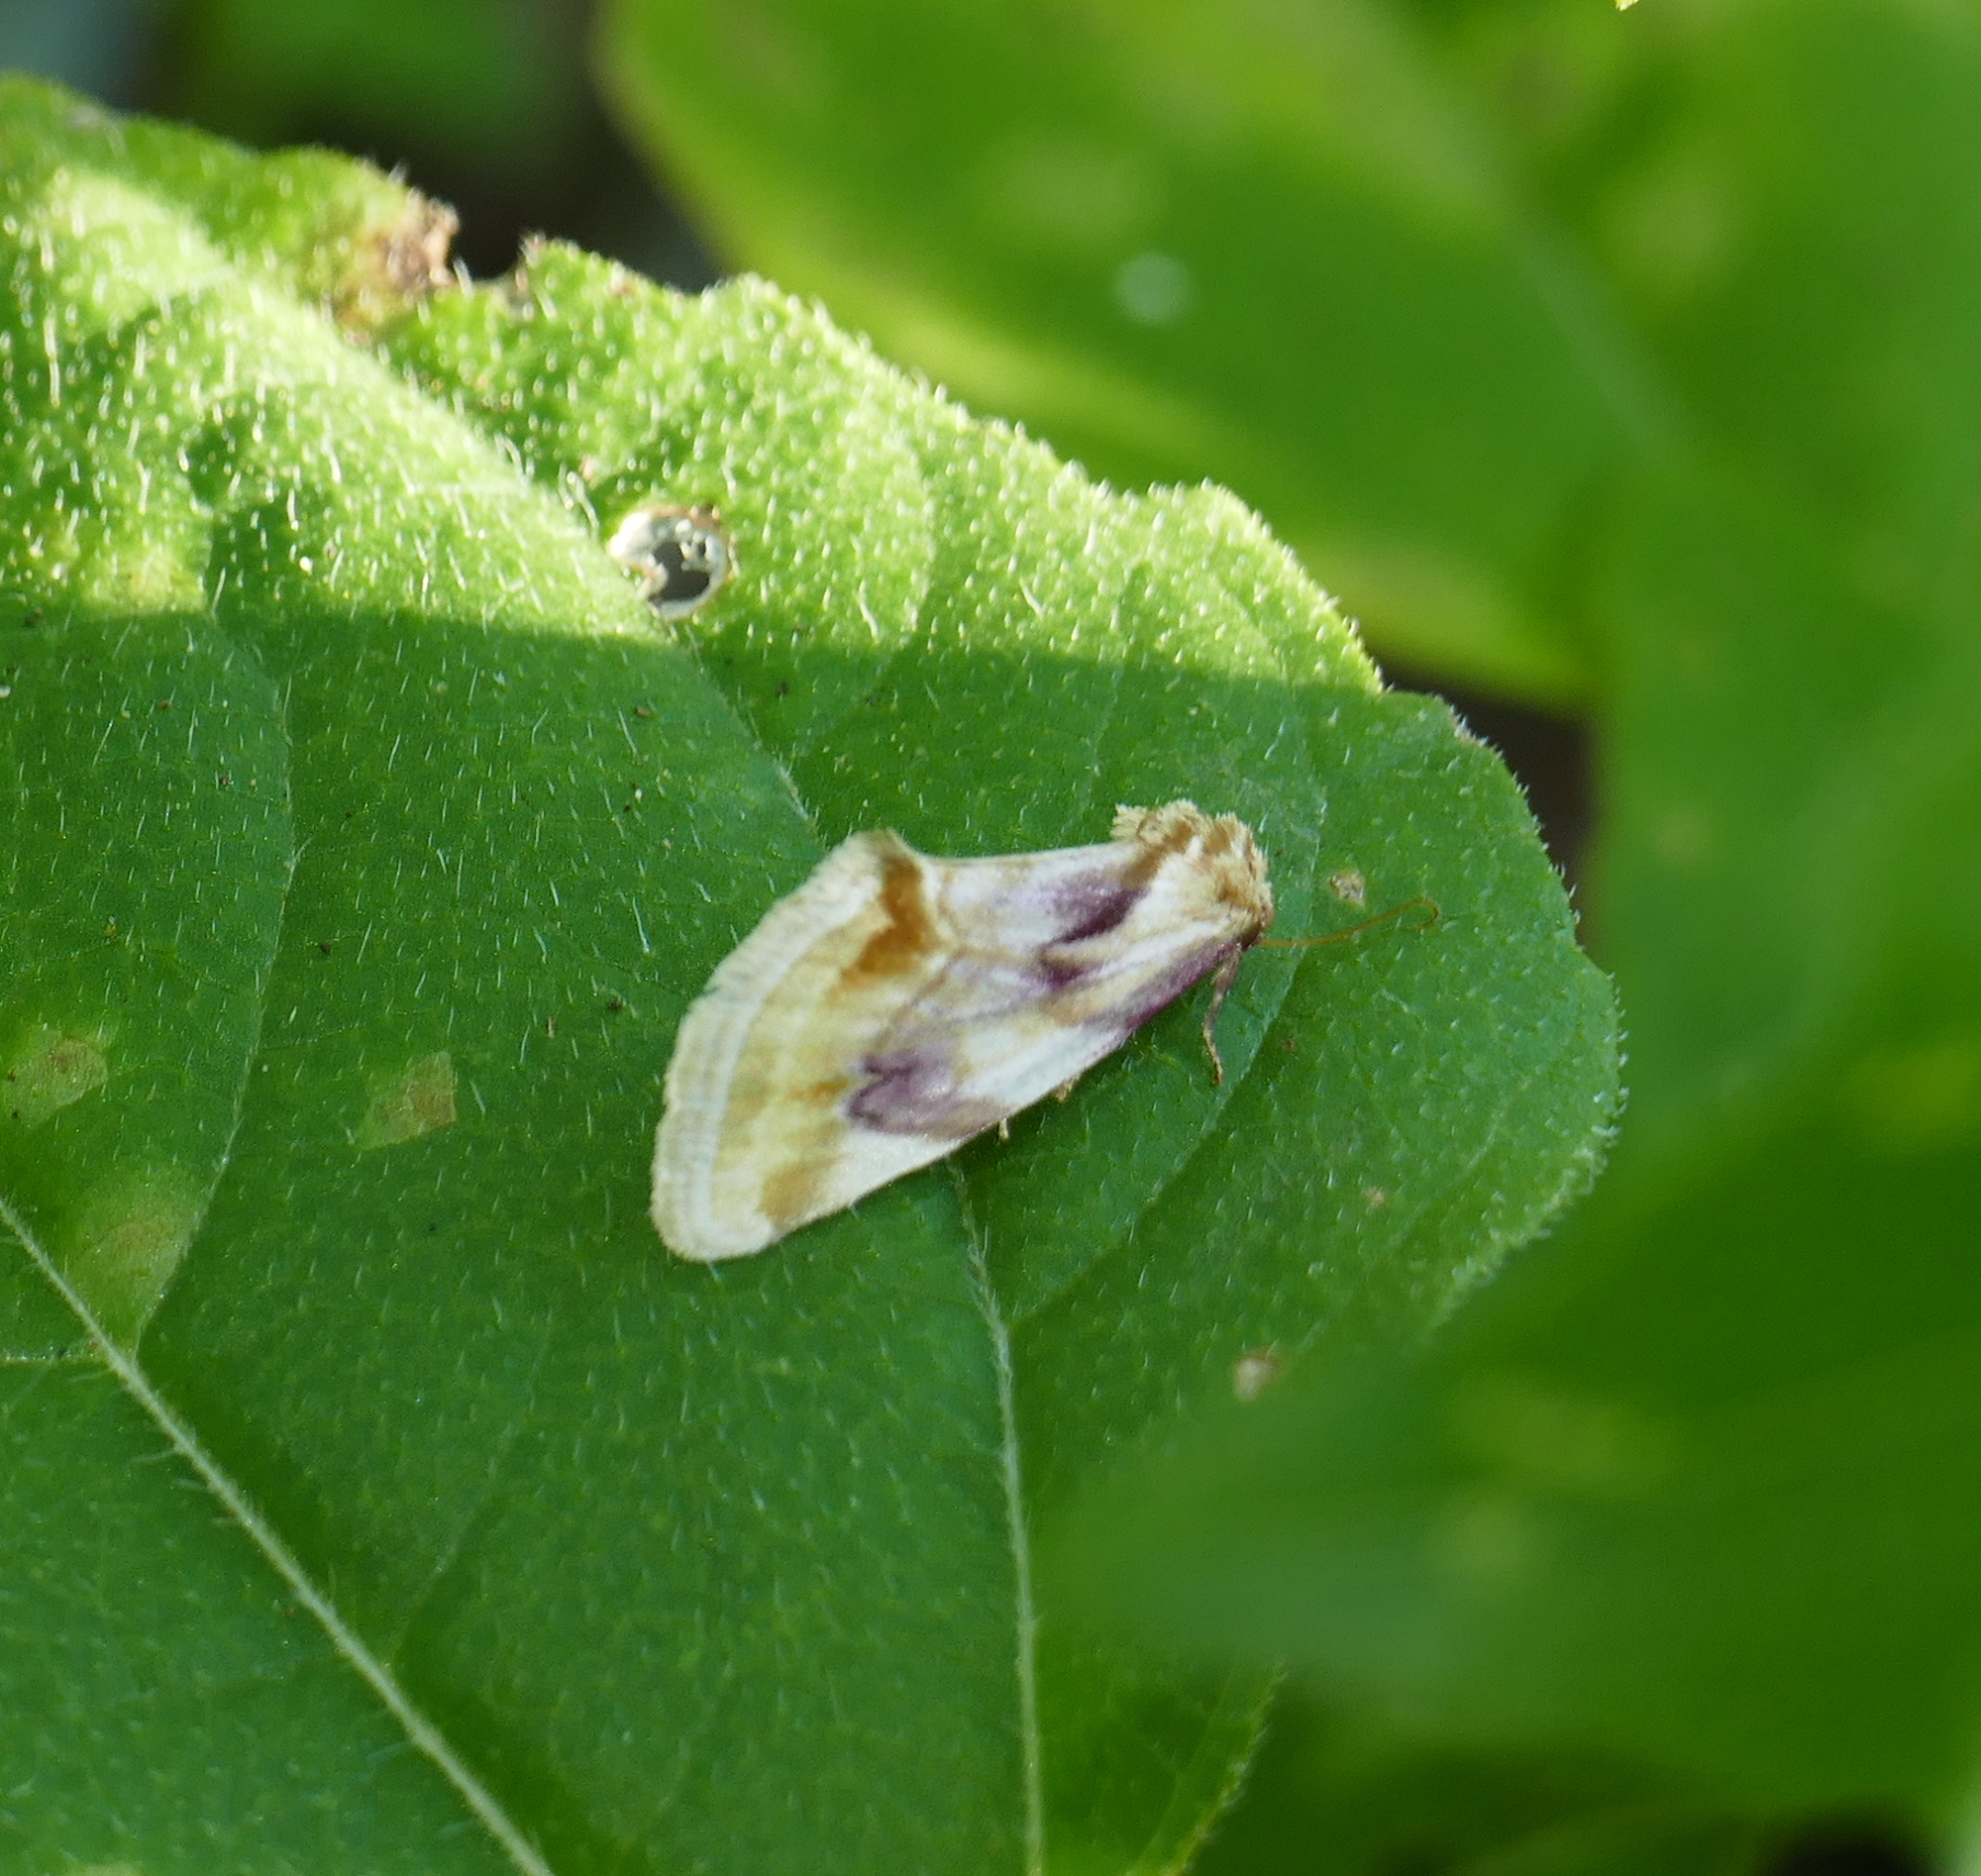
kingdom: Animalia
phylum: Arthropoda
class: Insecta
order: Lepidoptera
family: Noctuidae
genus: Chamaeclea
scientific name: Chamaeclea pernana
